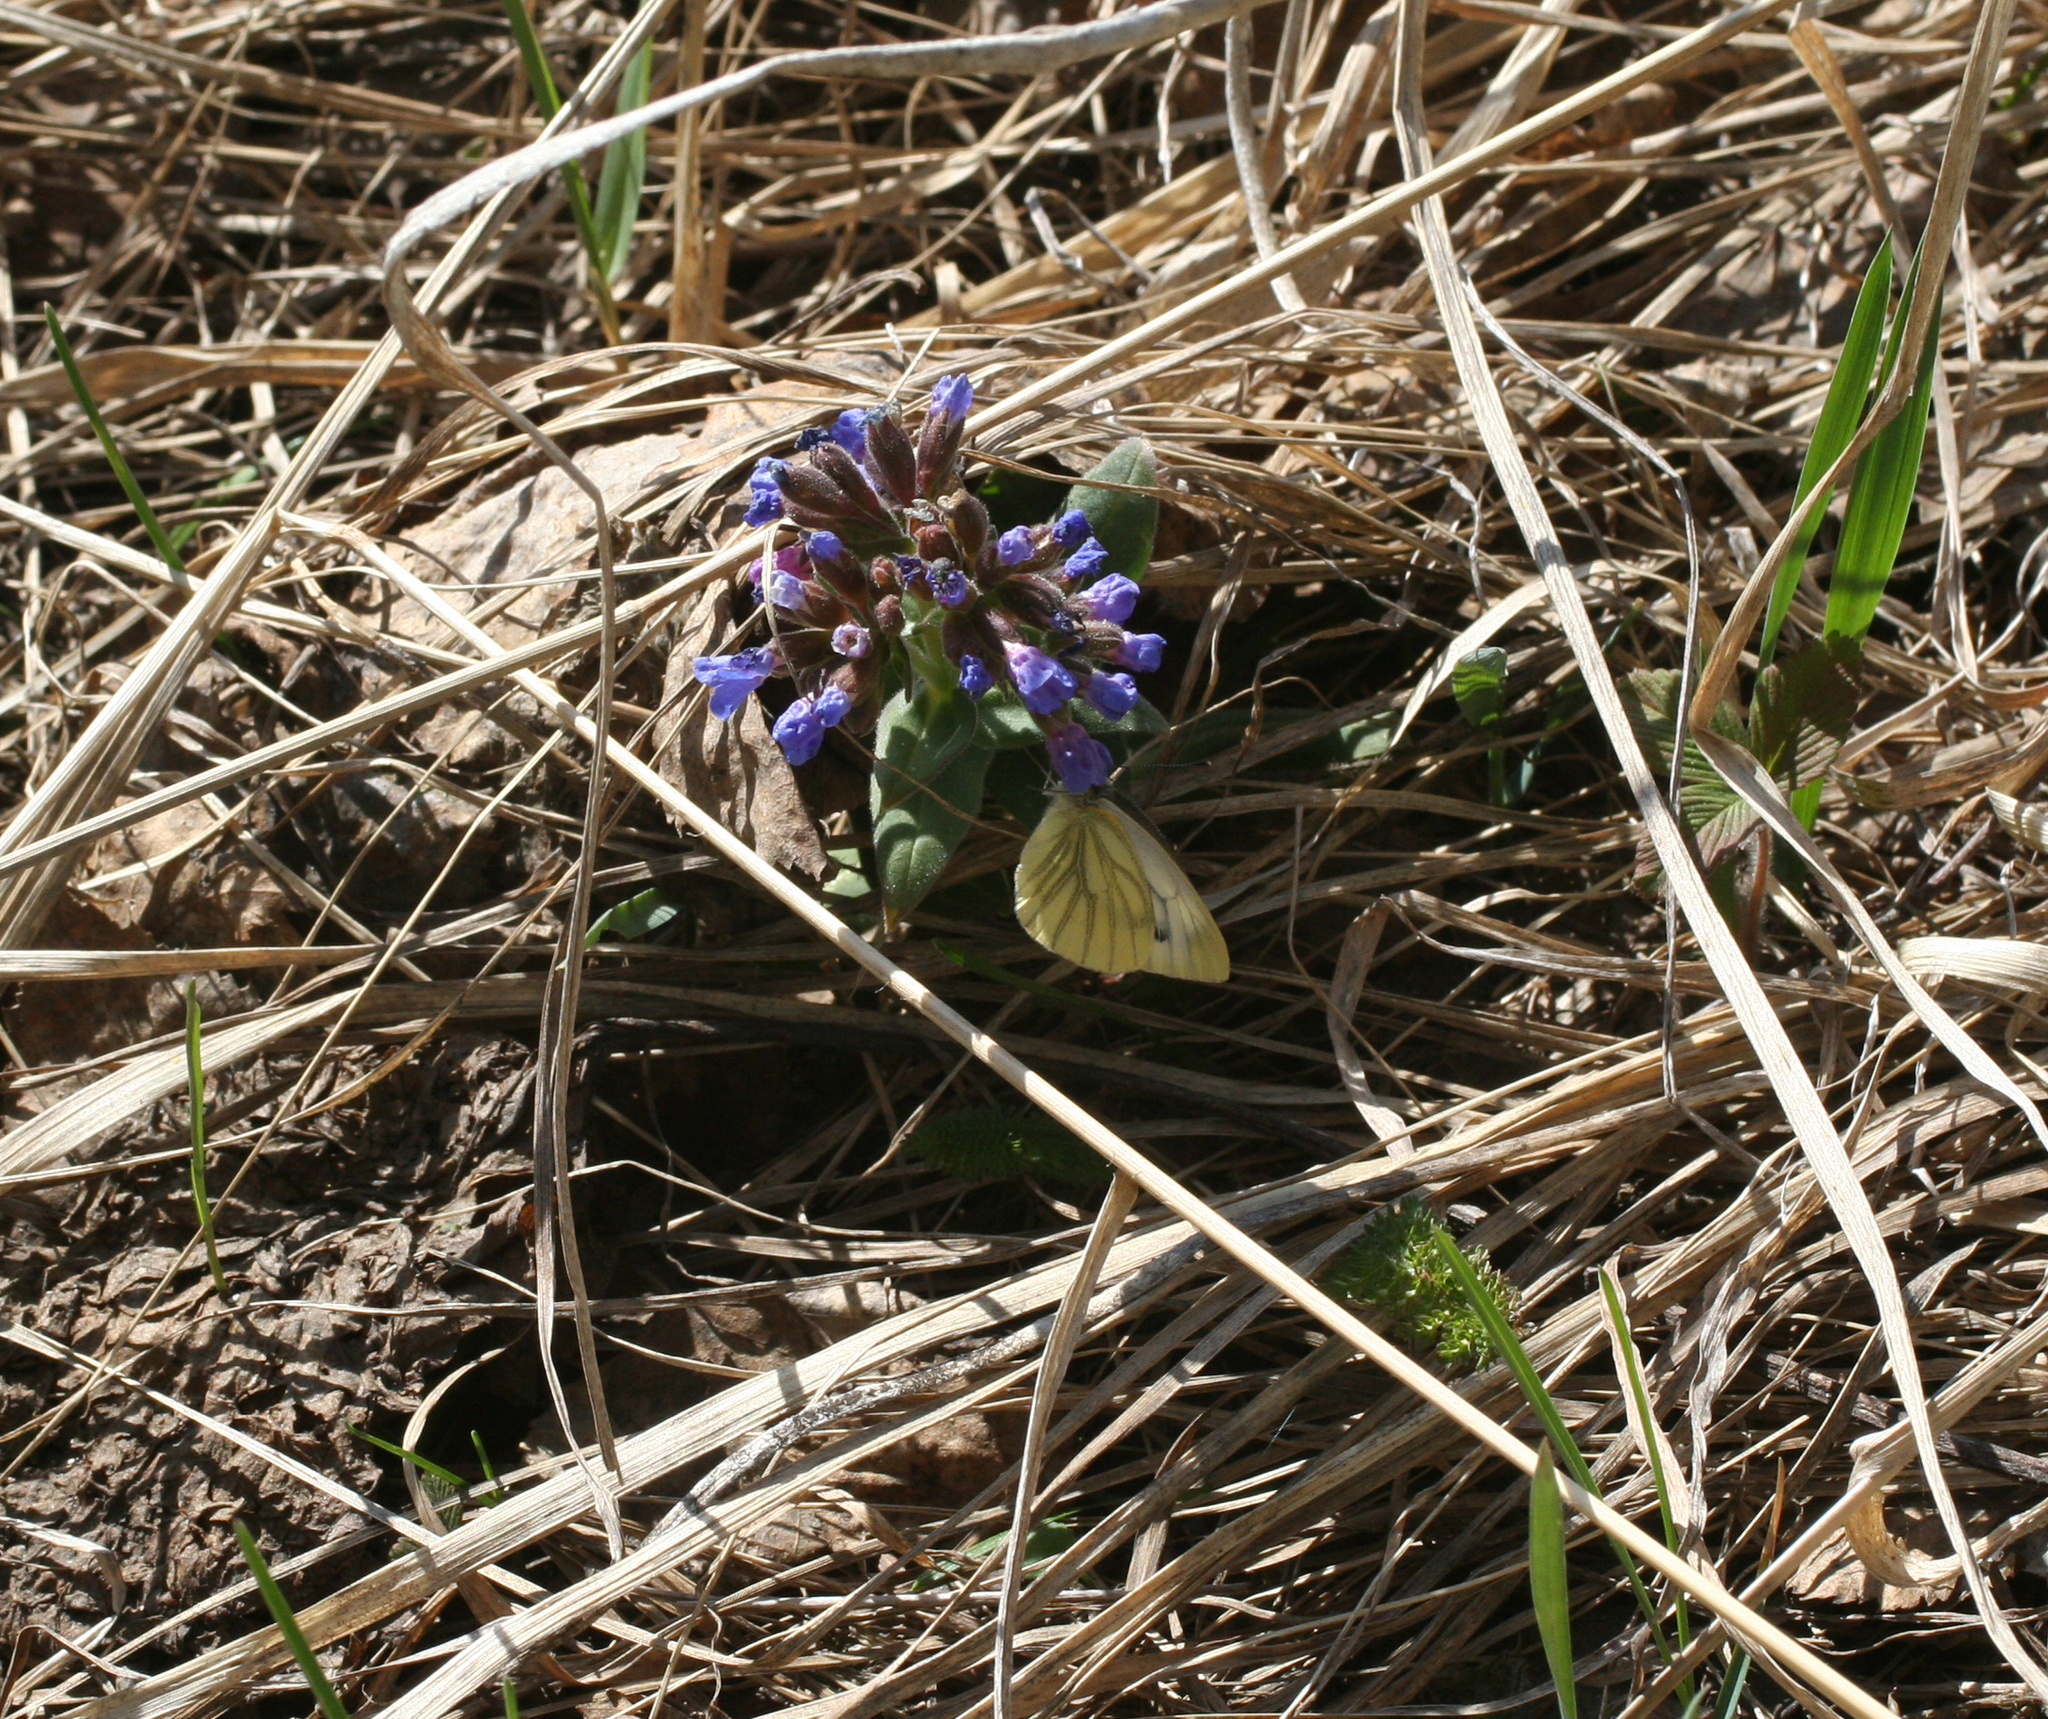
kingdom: Animalia
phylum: Arthropoda
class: Insecta
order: Lepidoptera
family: Pieridae
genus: Pieris
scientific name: Pieris napi
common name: Green-veined white
